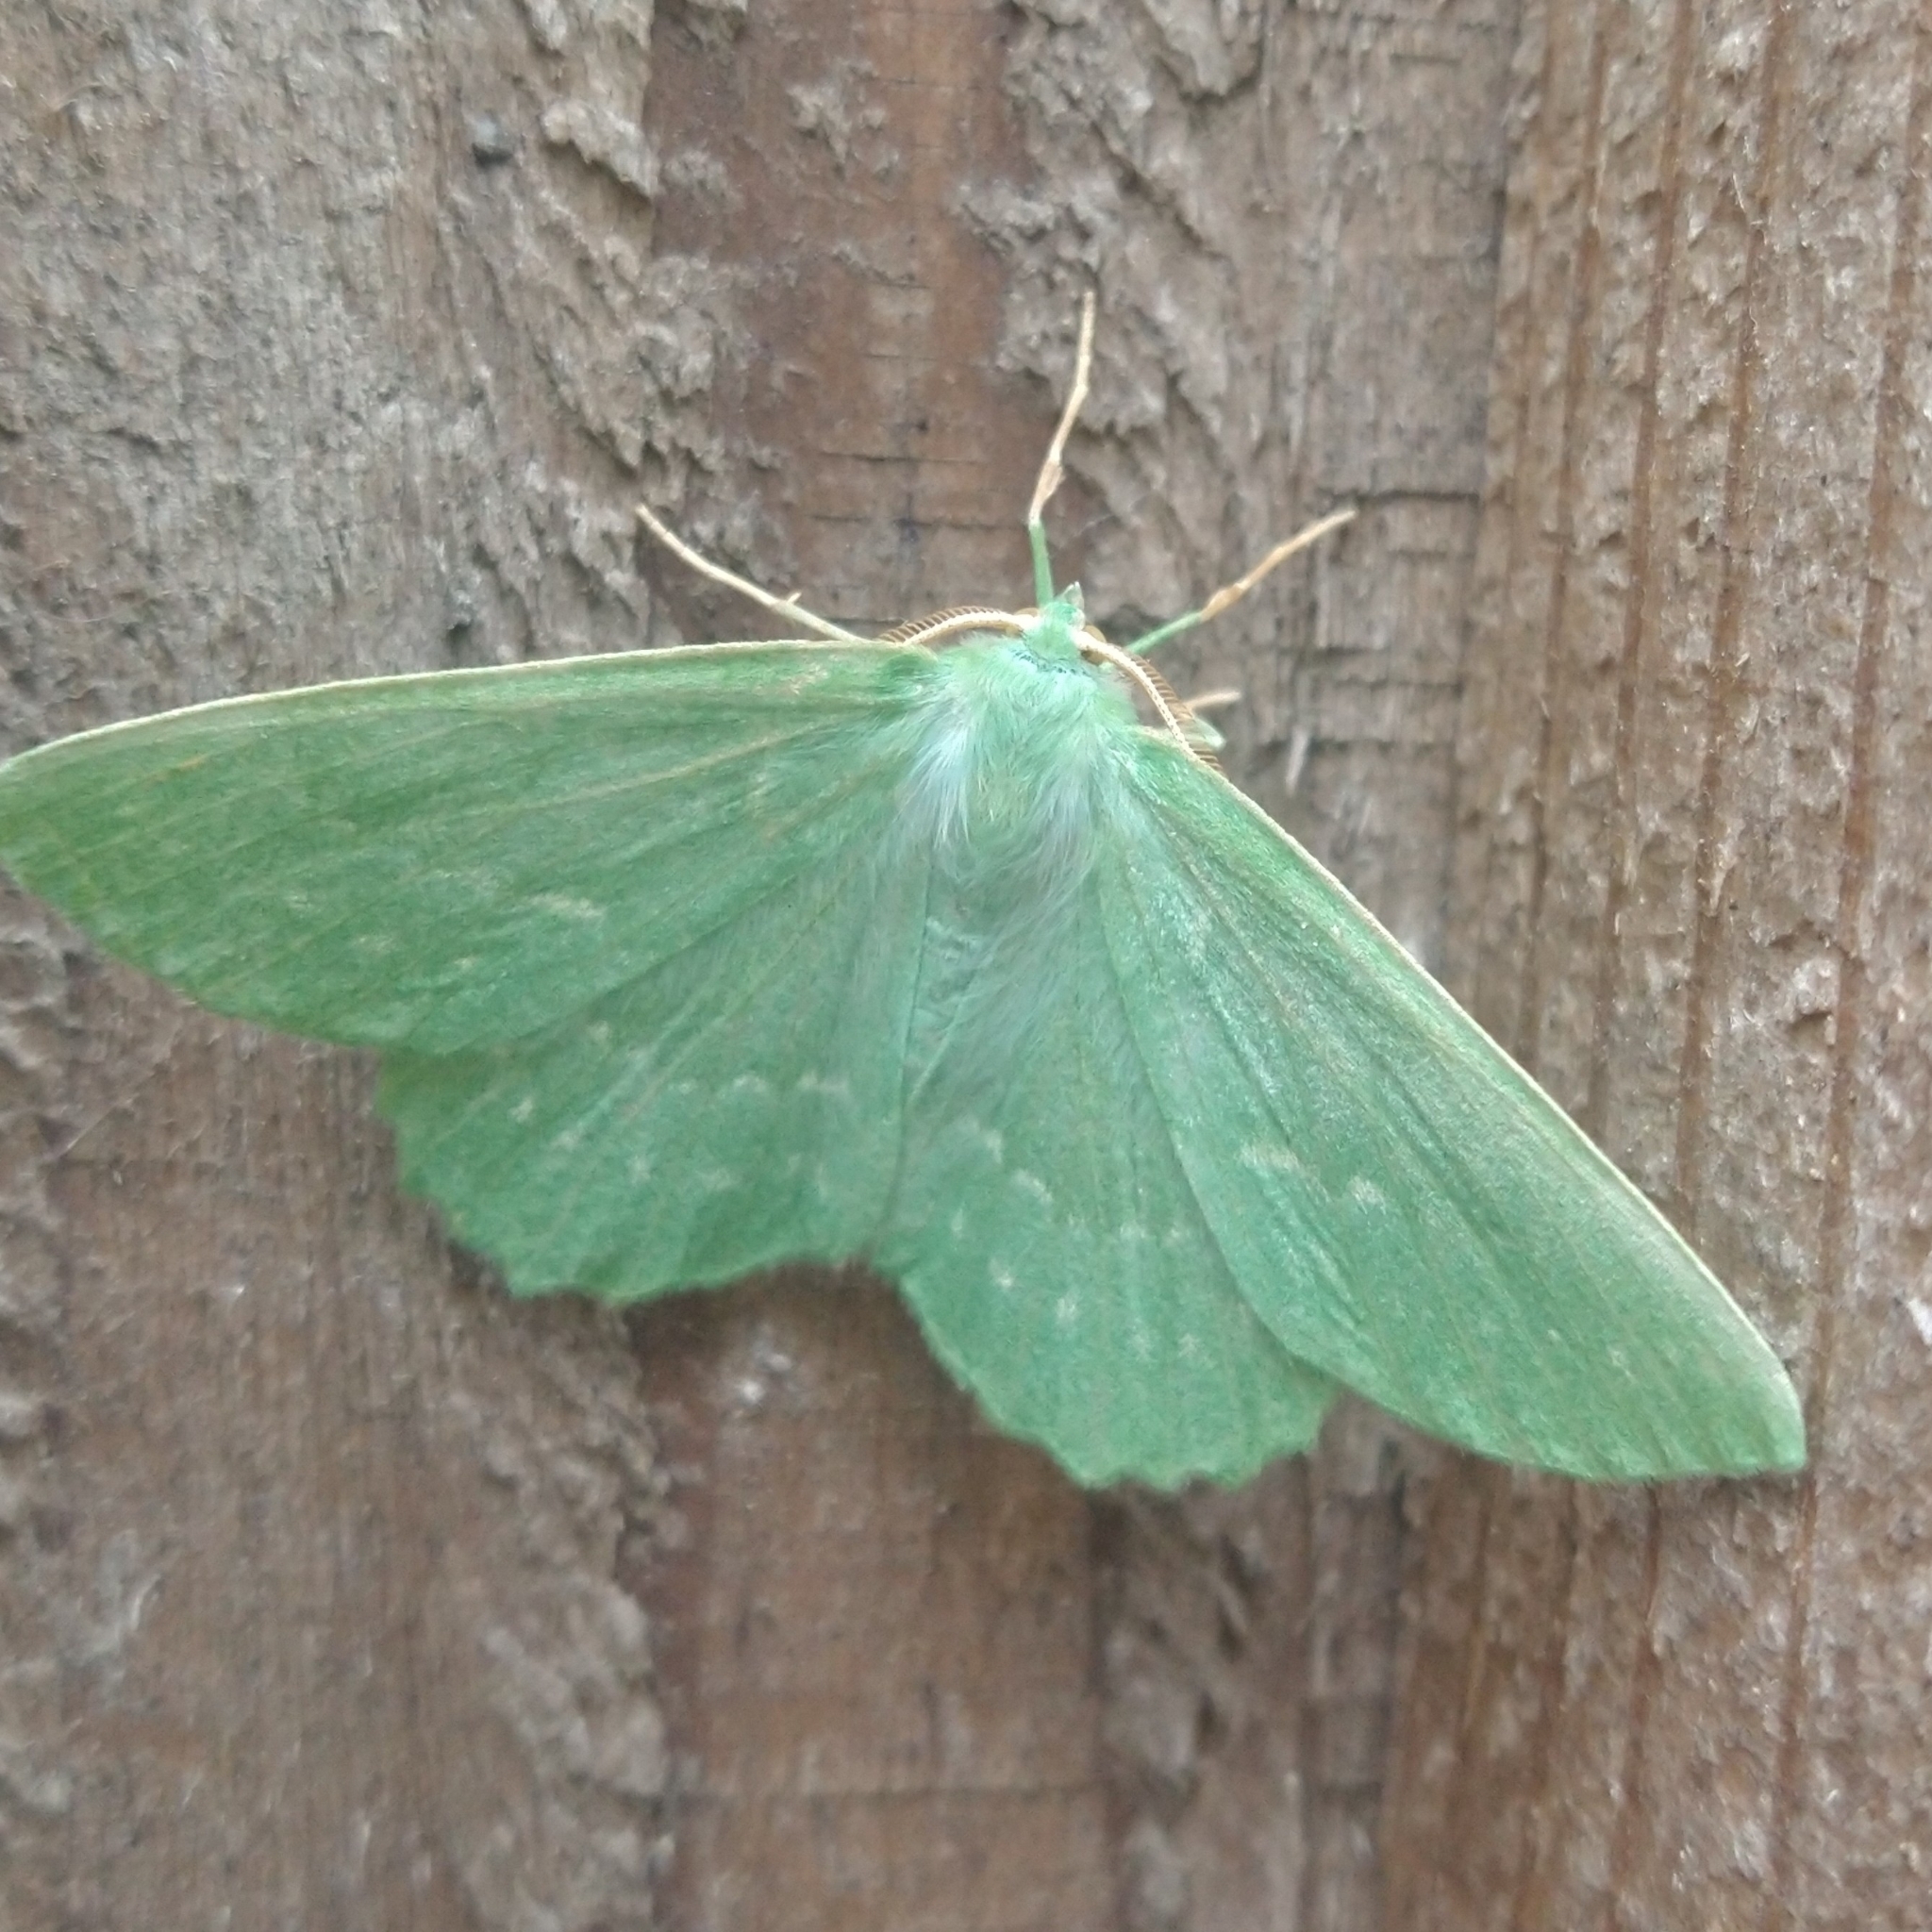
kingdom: Animalia
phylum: Arthropoda
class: Insecta
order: Lepidoptera
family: Geometridae
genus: Geometra
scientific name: Geometra papilionaria
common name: Large emerald
